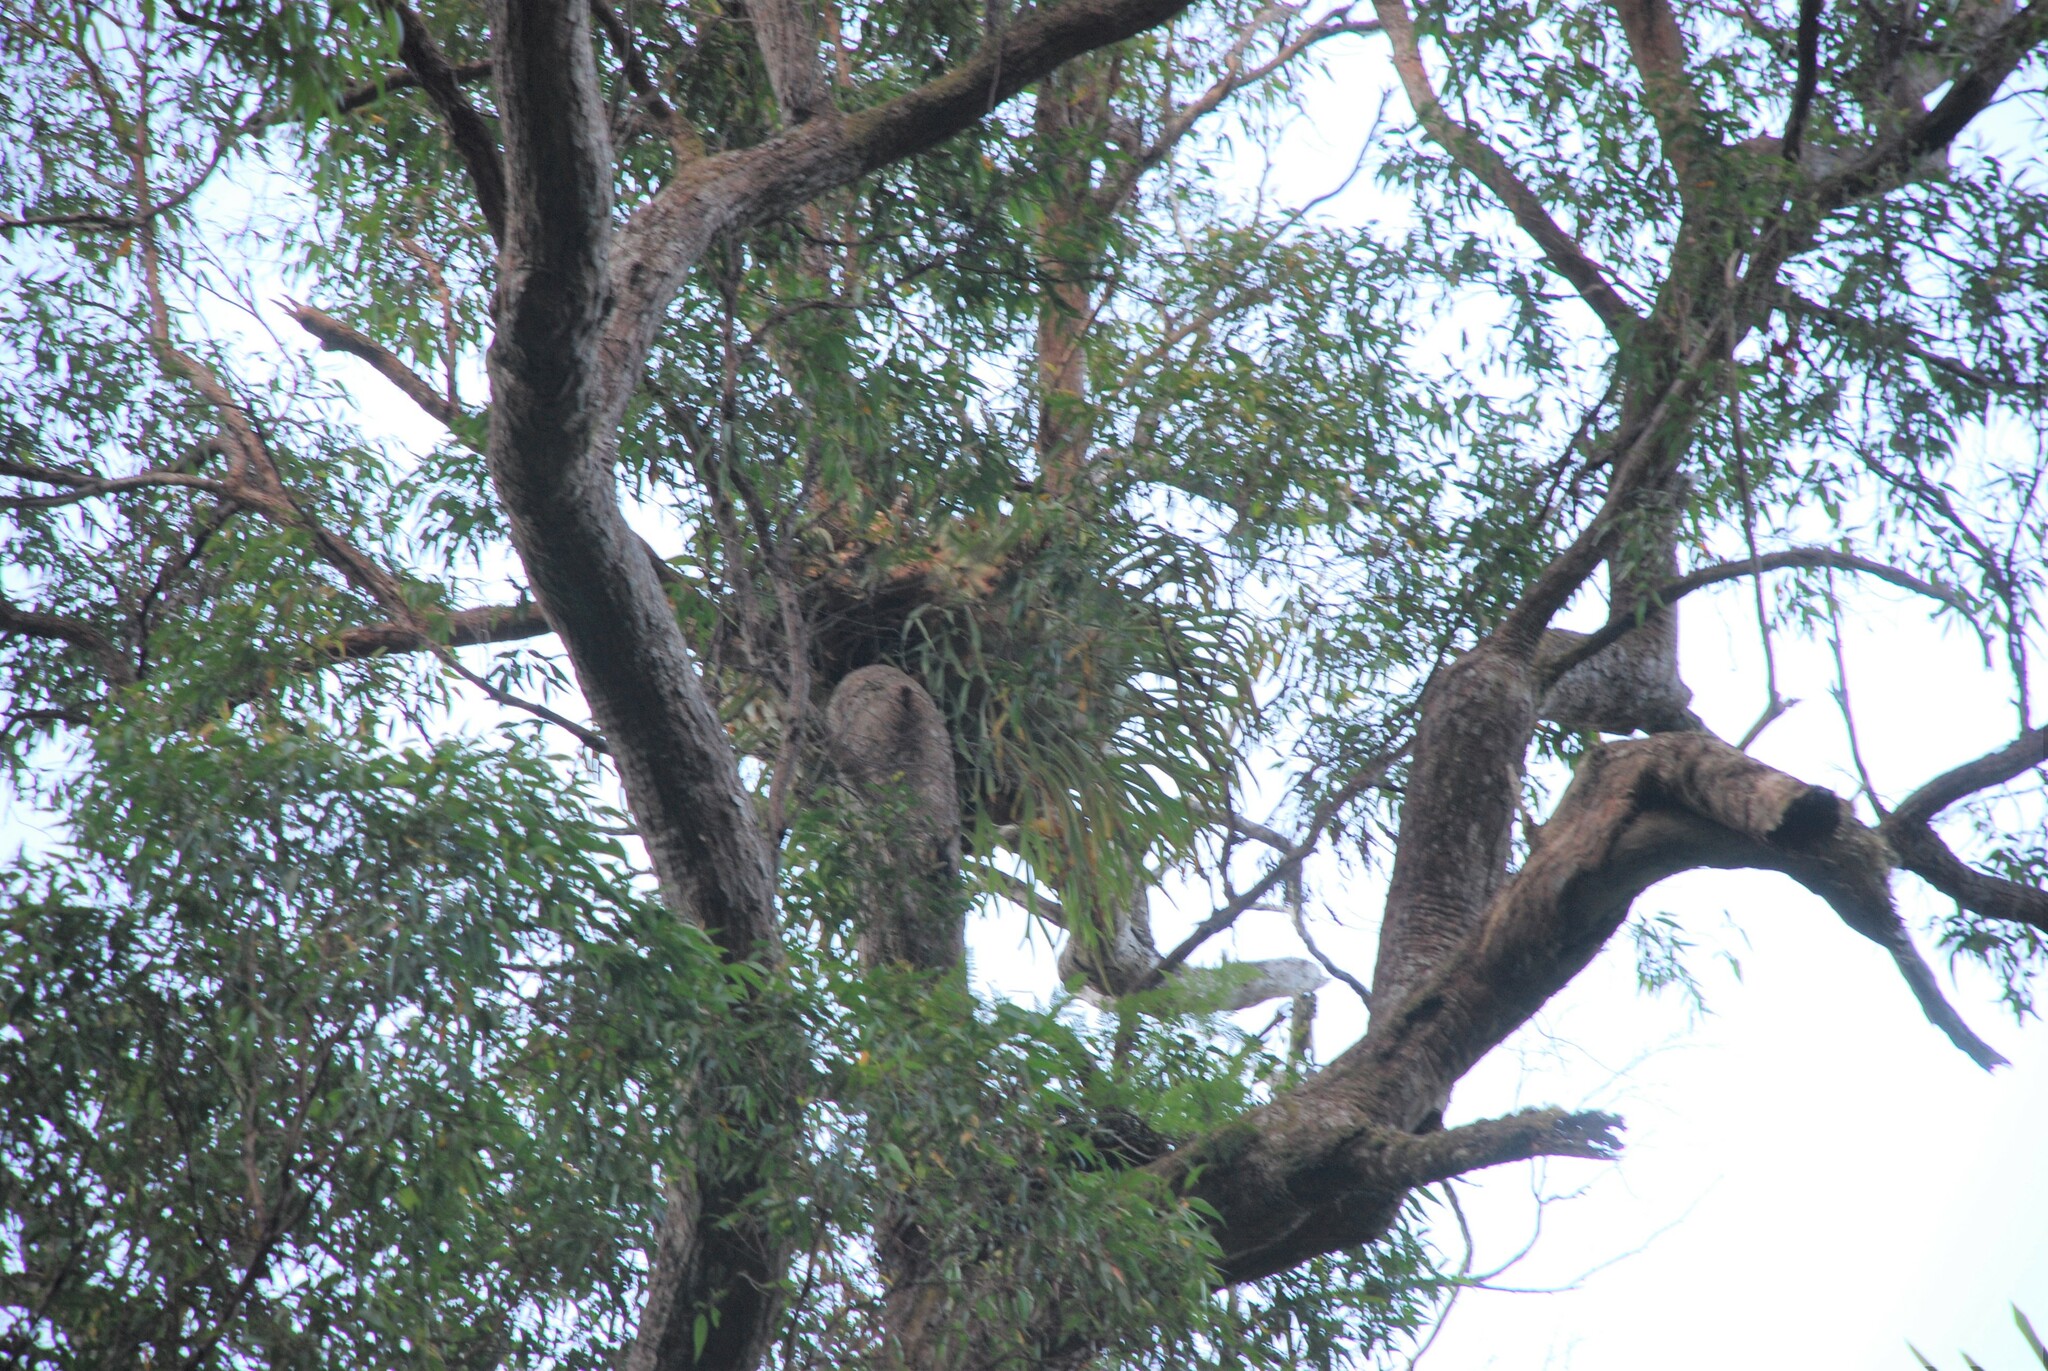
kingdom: Plantae
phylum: Tracheophyta
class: Polypodiopsida
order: Polypodiales
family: Polypodiaceae
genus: Platycerium
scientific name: Platycerium bifurcatum
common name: Elkhorn fern
